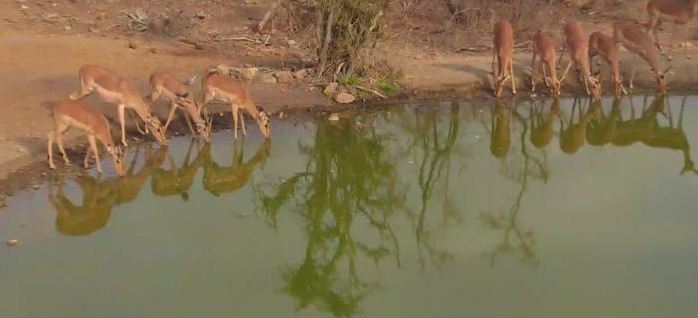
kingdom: Animalia
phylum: Chordata
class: Mammalia
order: Artiodactyla
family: Bovidae
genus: Aepyceros
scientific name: Aepyceros melampus
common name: Impala
